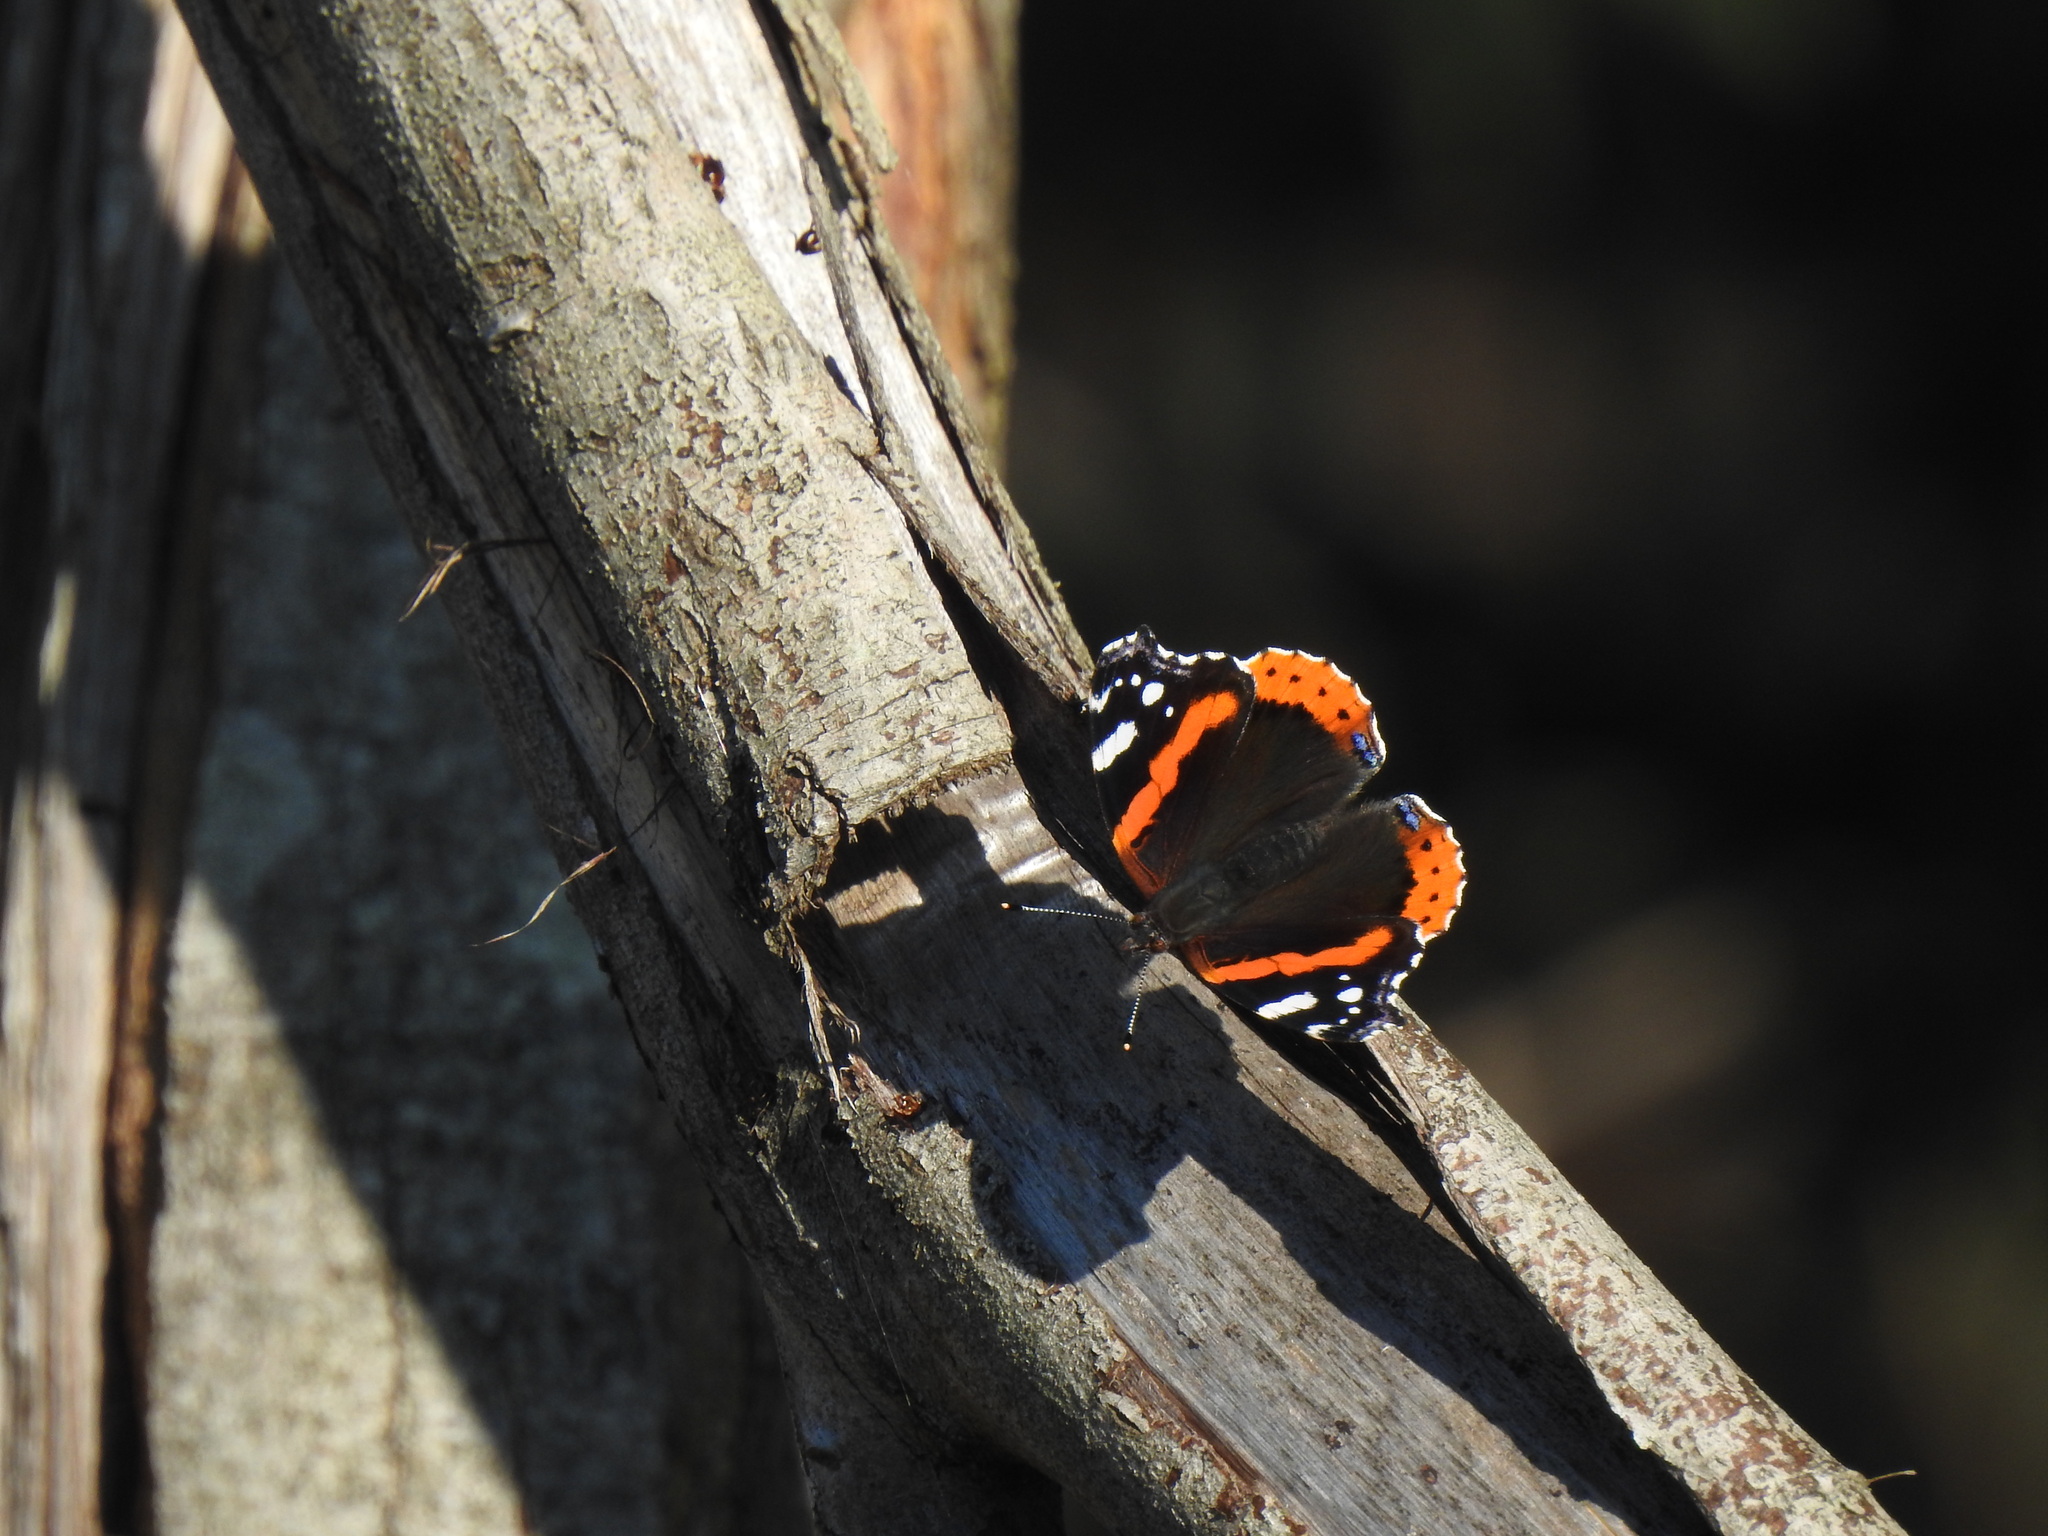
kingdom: Animalia
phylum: Arthropoda
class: Insecta
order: Lepidoptera
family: Nymphalidae
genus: Vanessa
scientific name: Vanessa atalanta
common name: Red admiral
